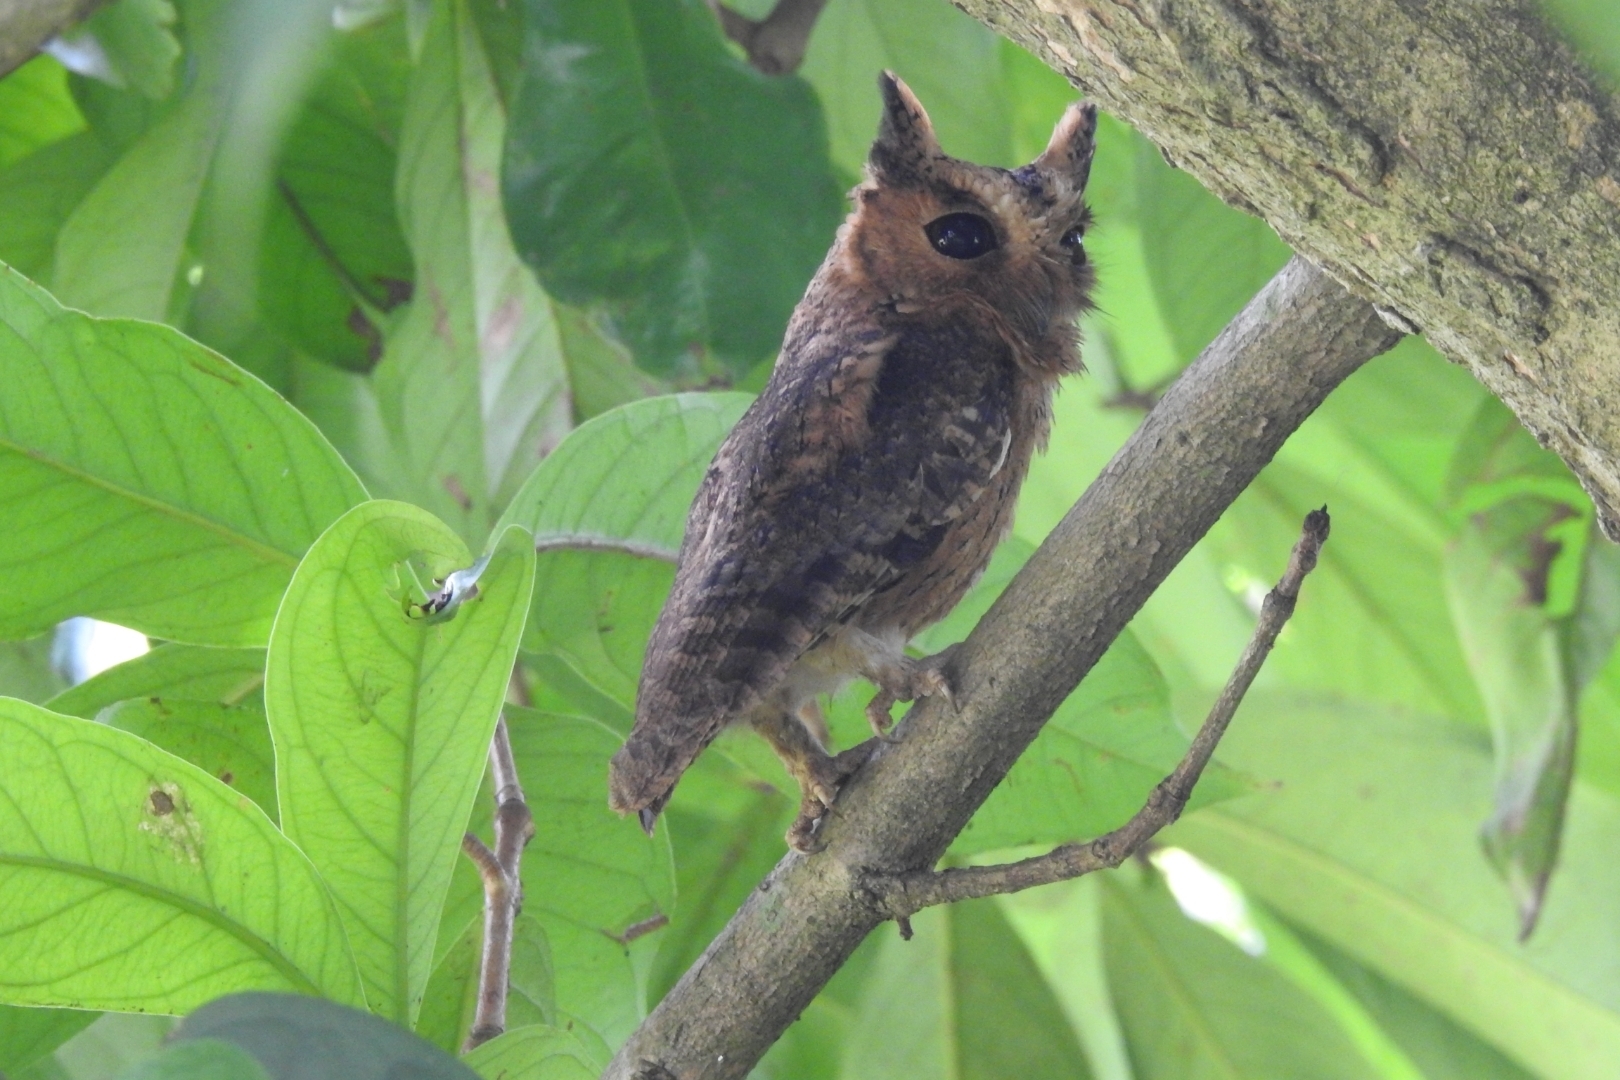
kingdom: Animalia
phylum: Chordata
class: Aves
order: Strigiformes
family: Strigidae
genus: Otus
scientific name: Otus bakkamoena
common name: Indian scops owl
